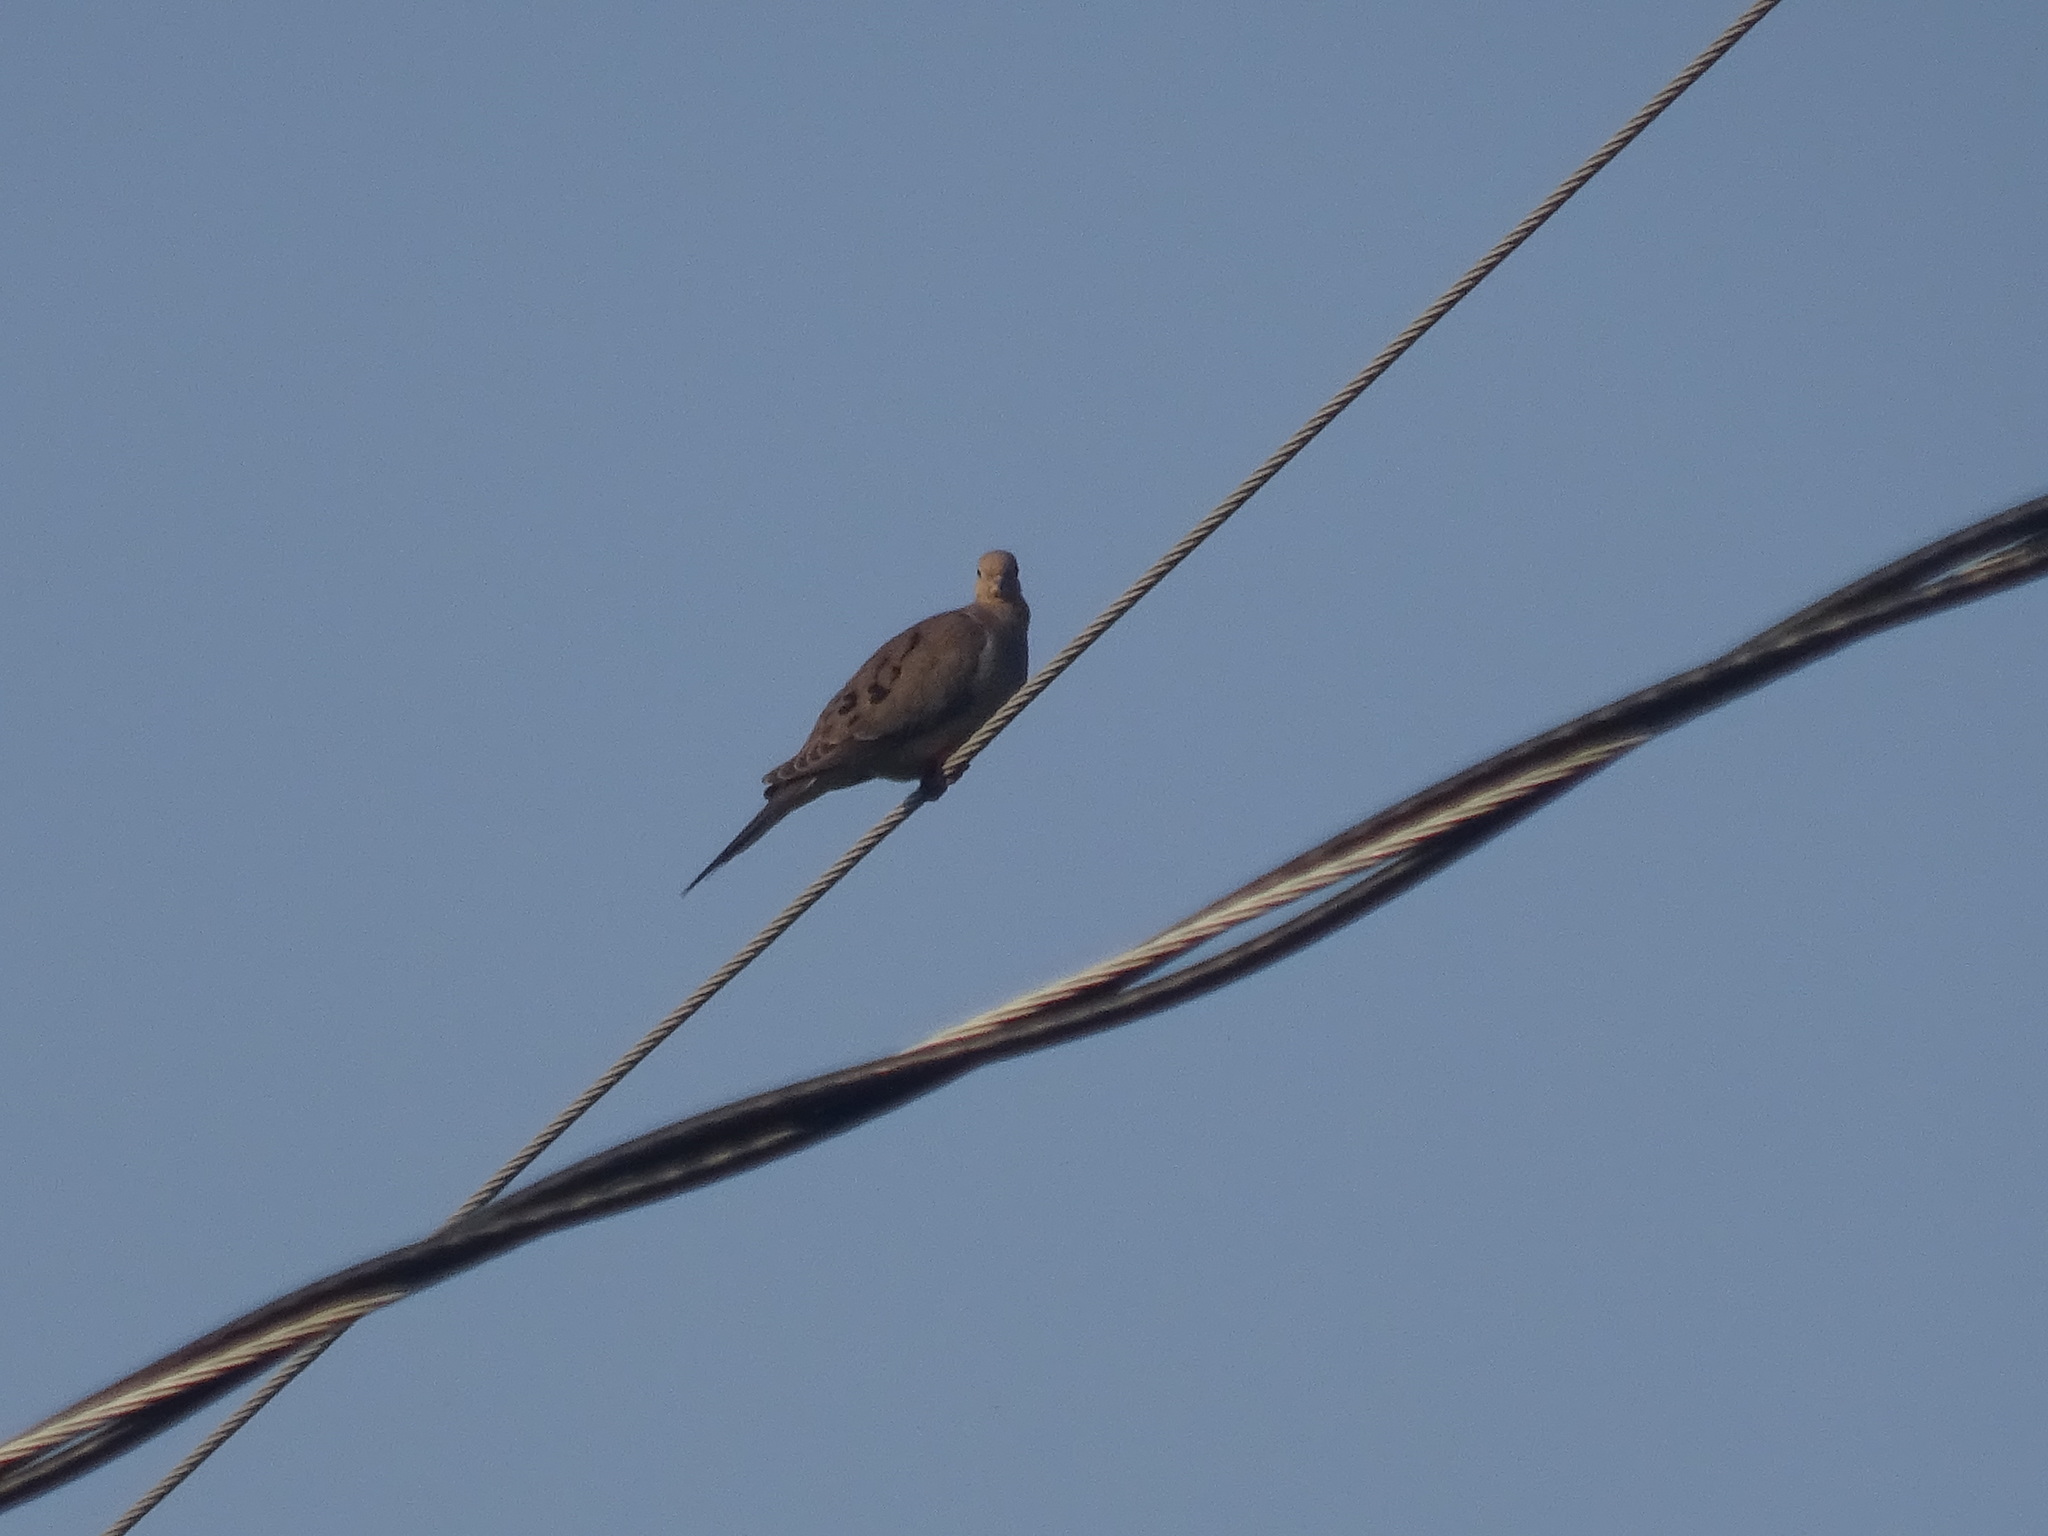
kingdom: Animalia
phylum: Chordata
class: Aves
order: Columbiformes
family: Columbidae
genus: Zenaida
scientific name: Zenaida macroura
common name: Mourning dove
